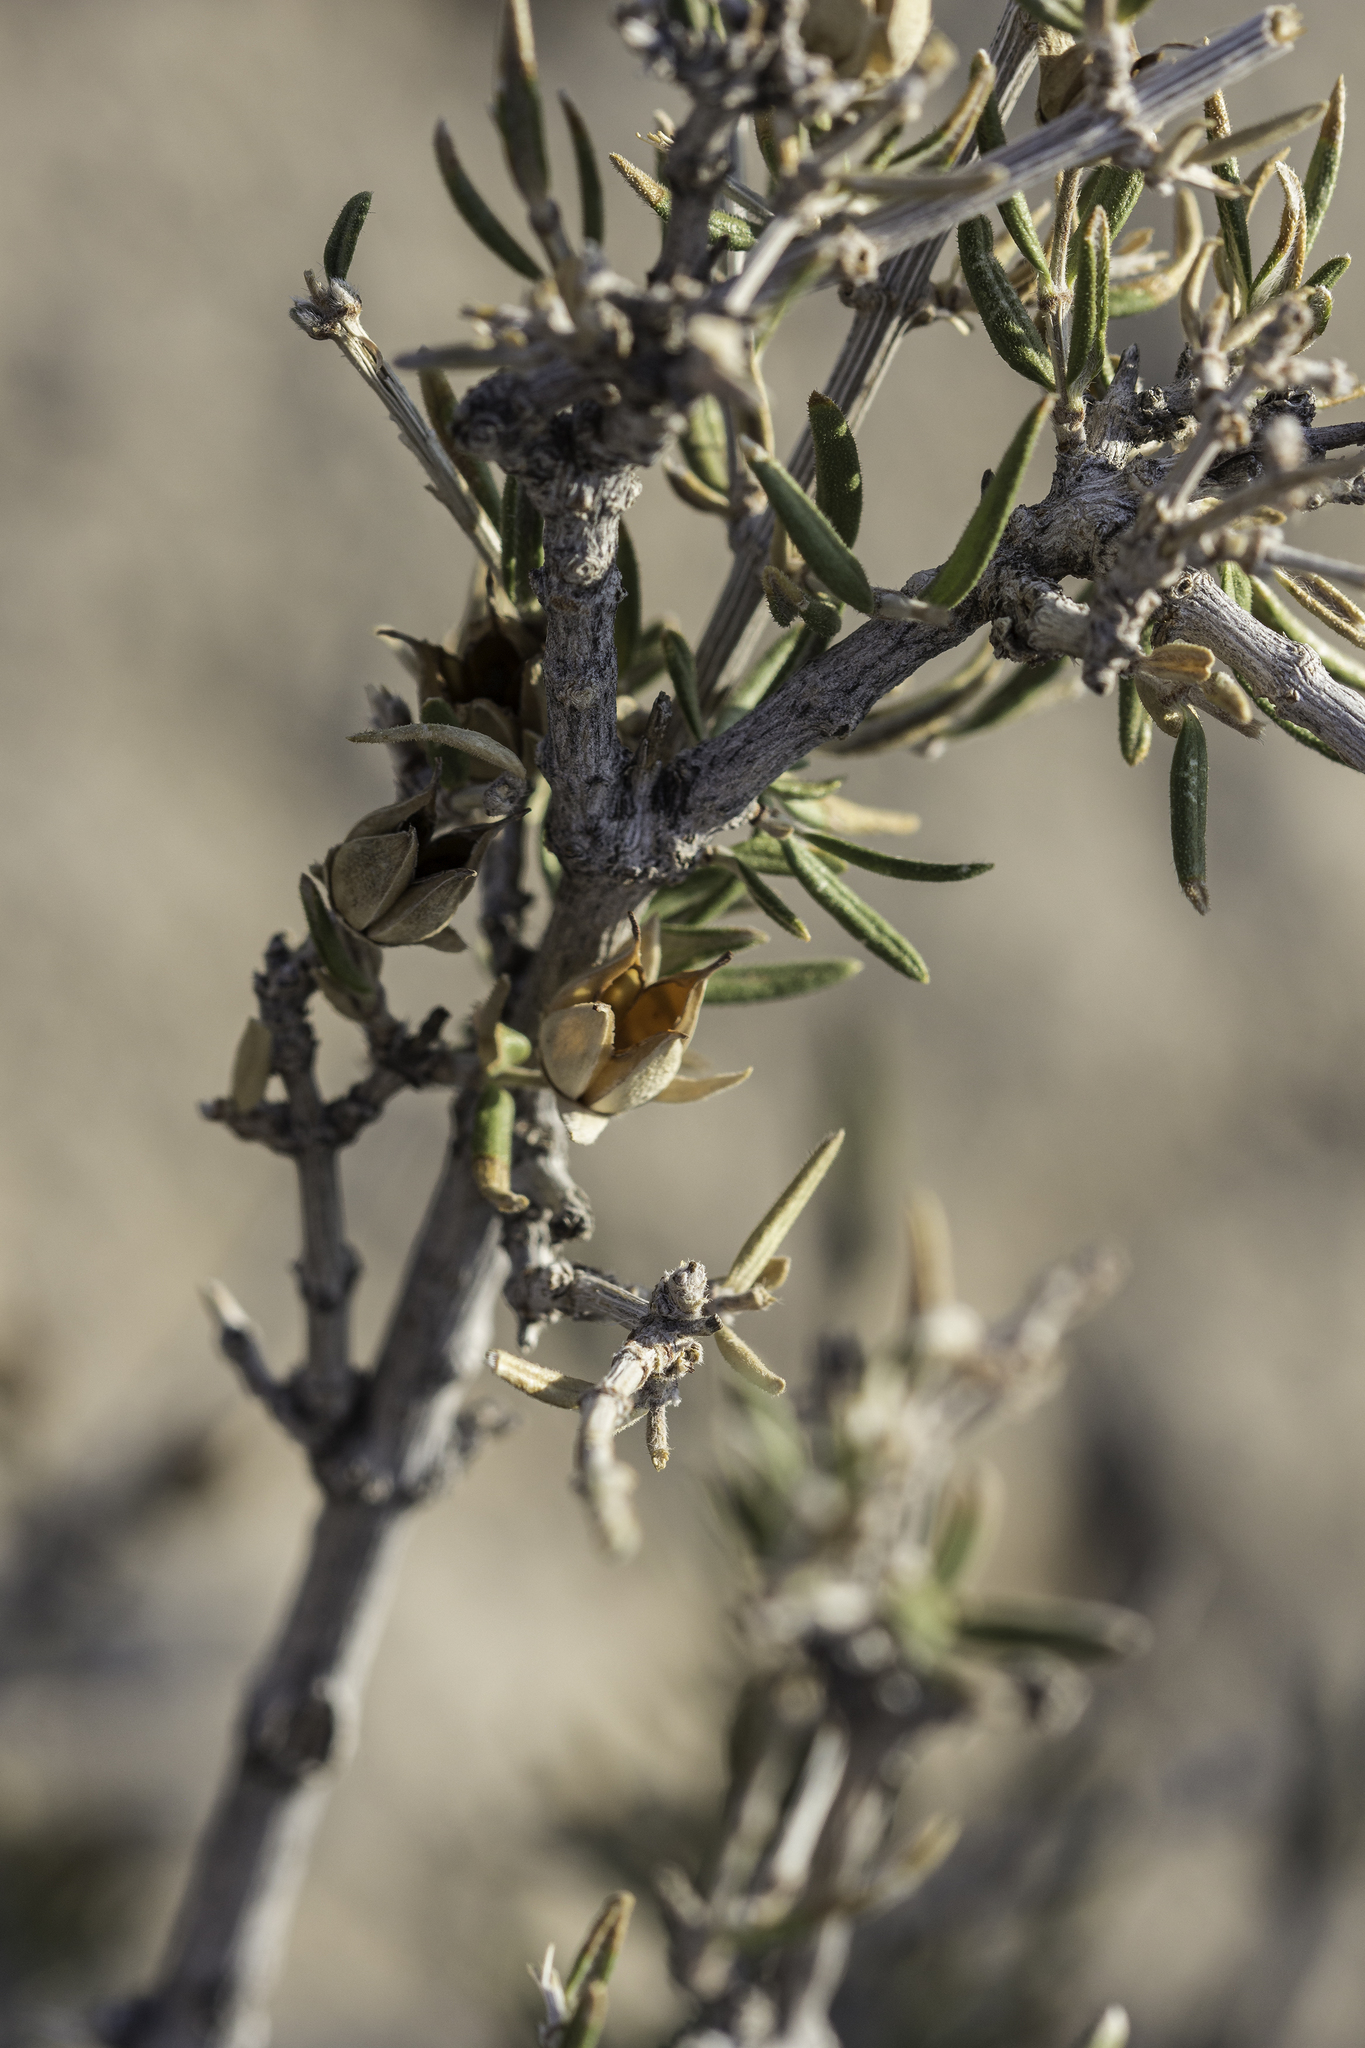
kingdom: Plantae
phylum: Tracheophyta
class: Magnoliopsida
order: Cornales
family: Hydrangeaceae
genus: Fendlera
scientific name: Fendlera rupicola
